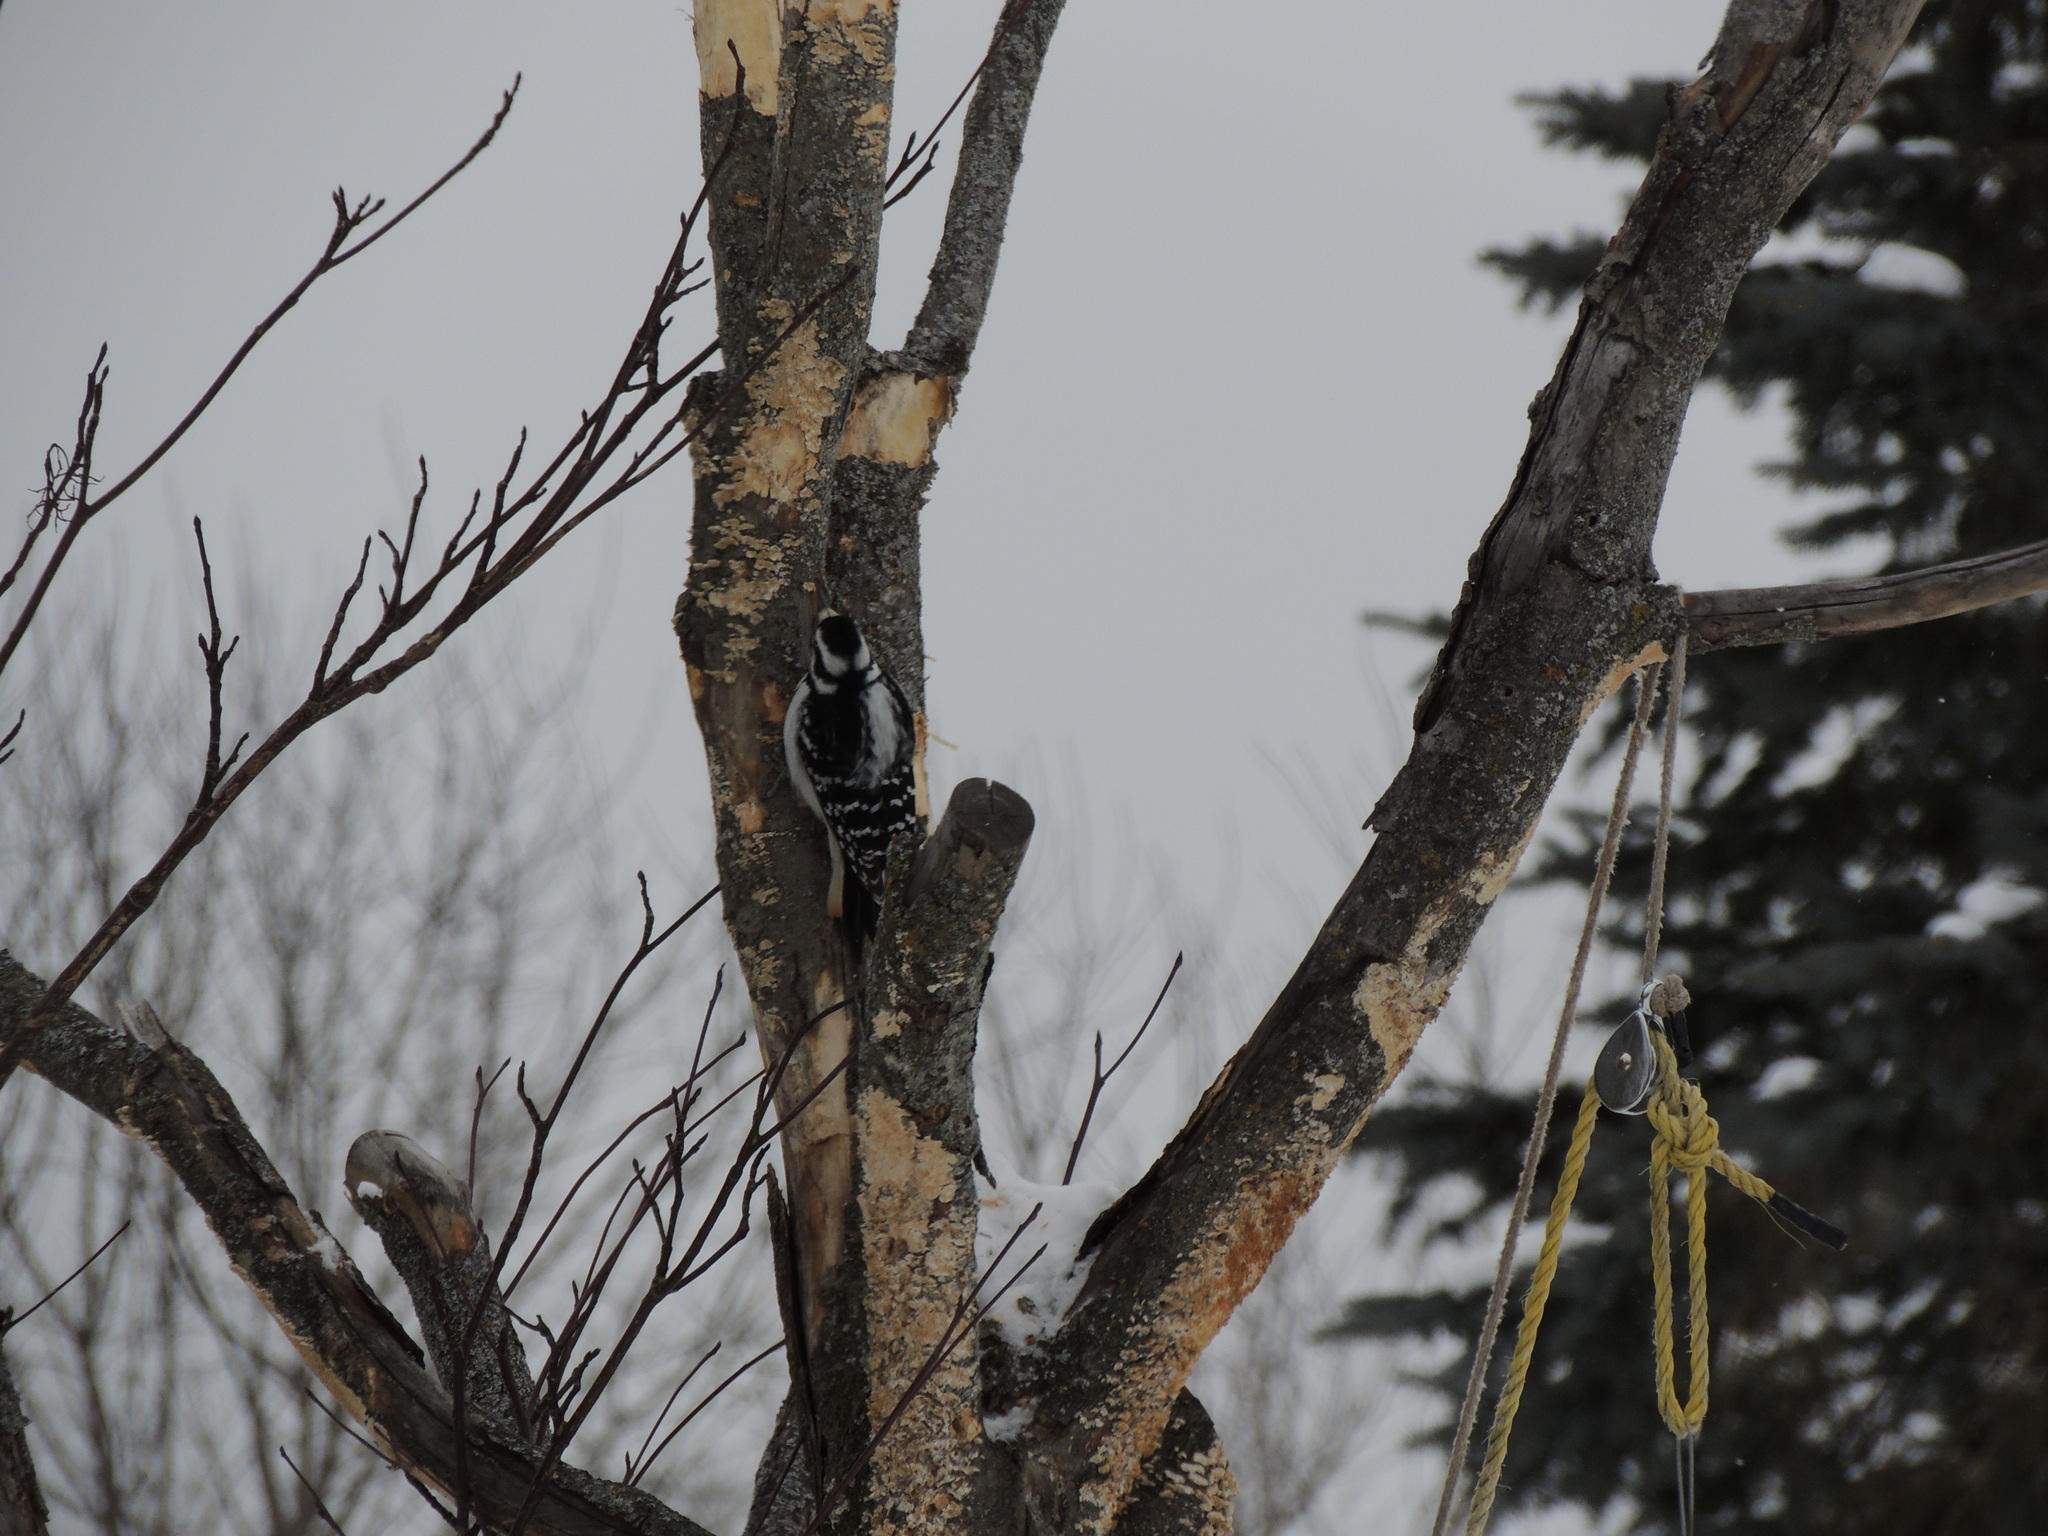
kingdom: Animalia
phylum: Chordata
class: Aves
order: Piciformes
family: Picidae
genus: Leuconotopicus
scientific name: Leuconotopicus villosus
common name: Hairy woodpecker
